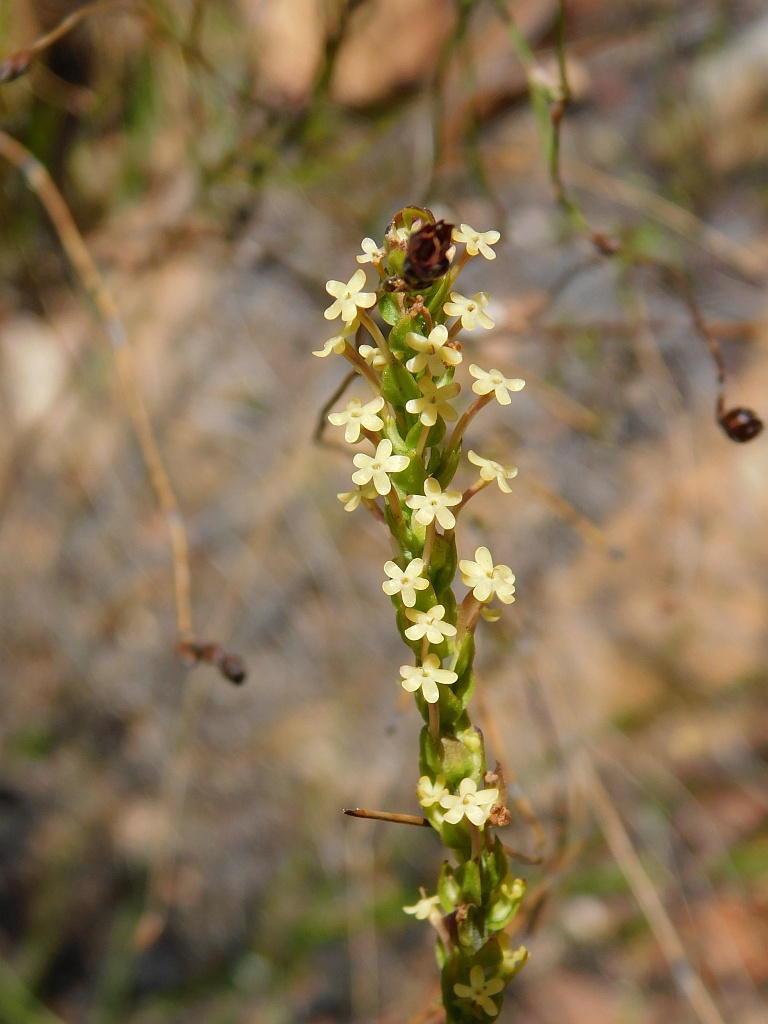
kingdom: Plantae
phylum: Tracheophyta
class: Magnoliopsida
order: Lamiales
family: Scrophulariaceae
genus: Microdon
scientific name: Microdon dubius
